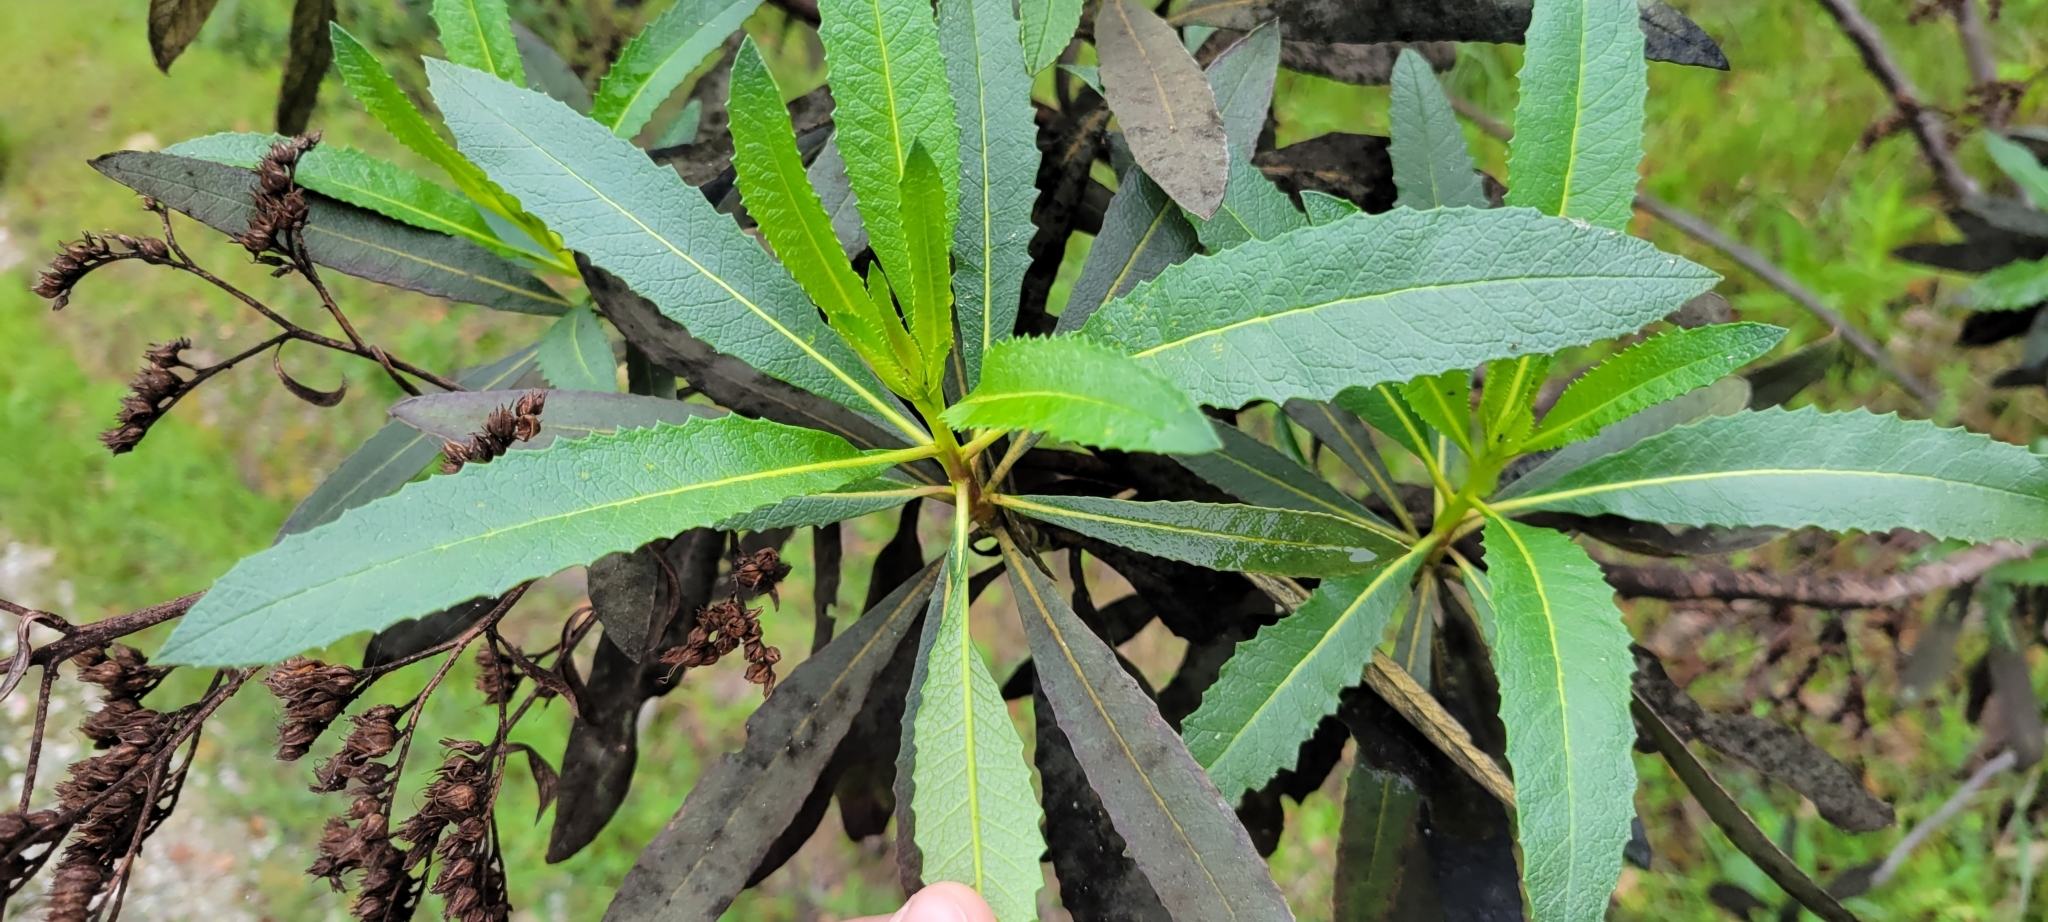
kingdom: Plantae
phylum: Tracheophyta
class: Magnoliopsida
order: Boraginales
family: Namaceae
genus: Eriodictyon
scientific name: Eriodictyon californicum
